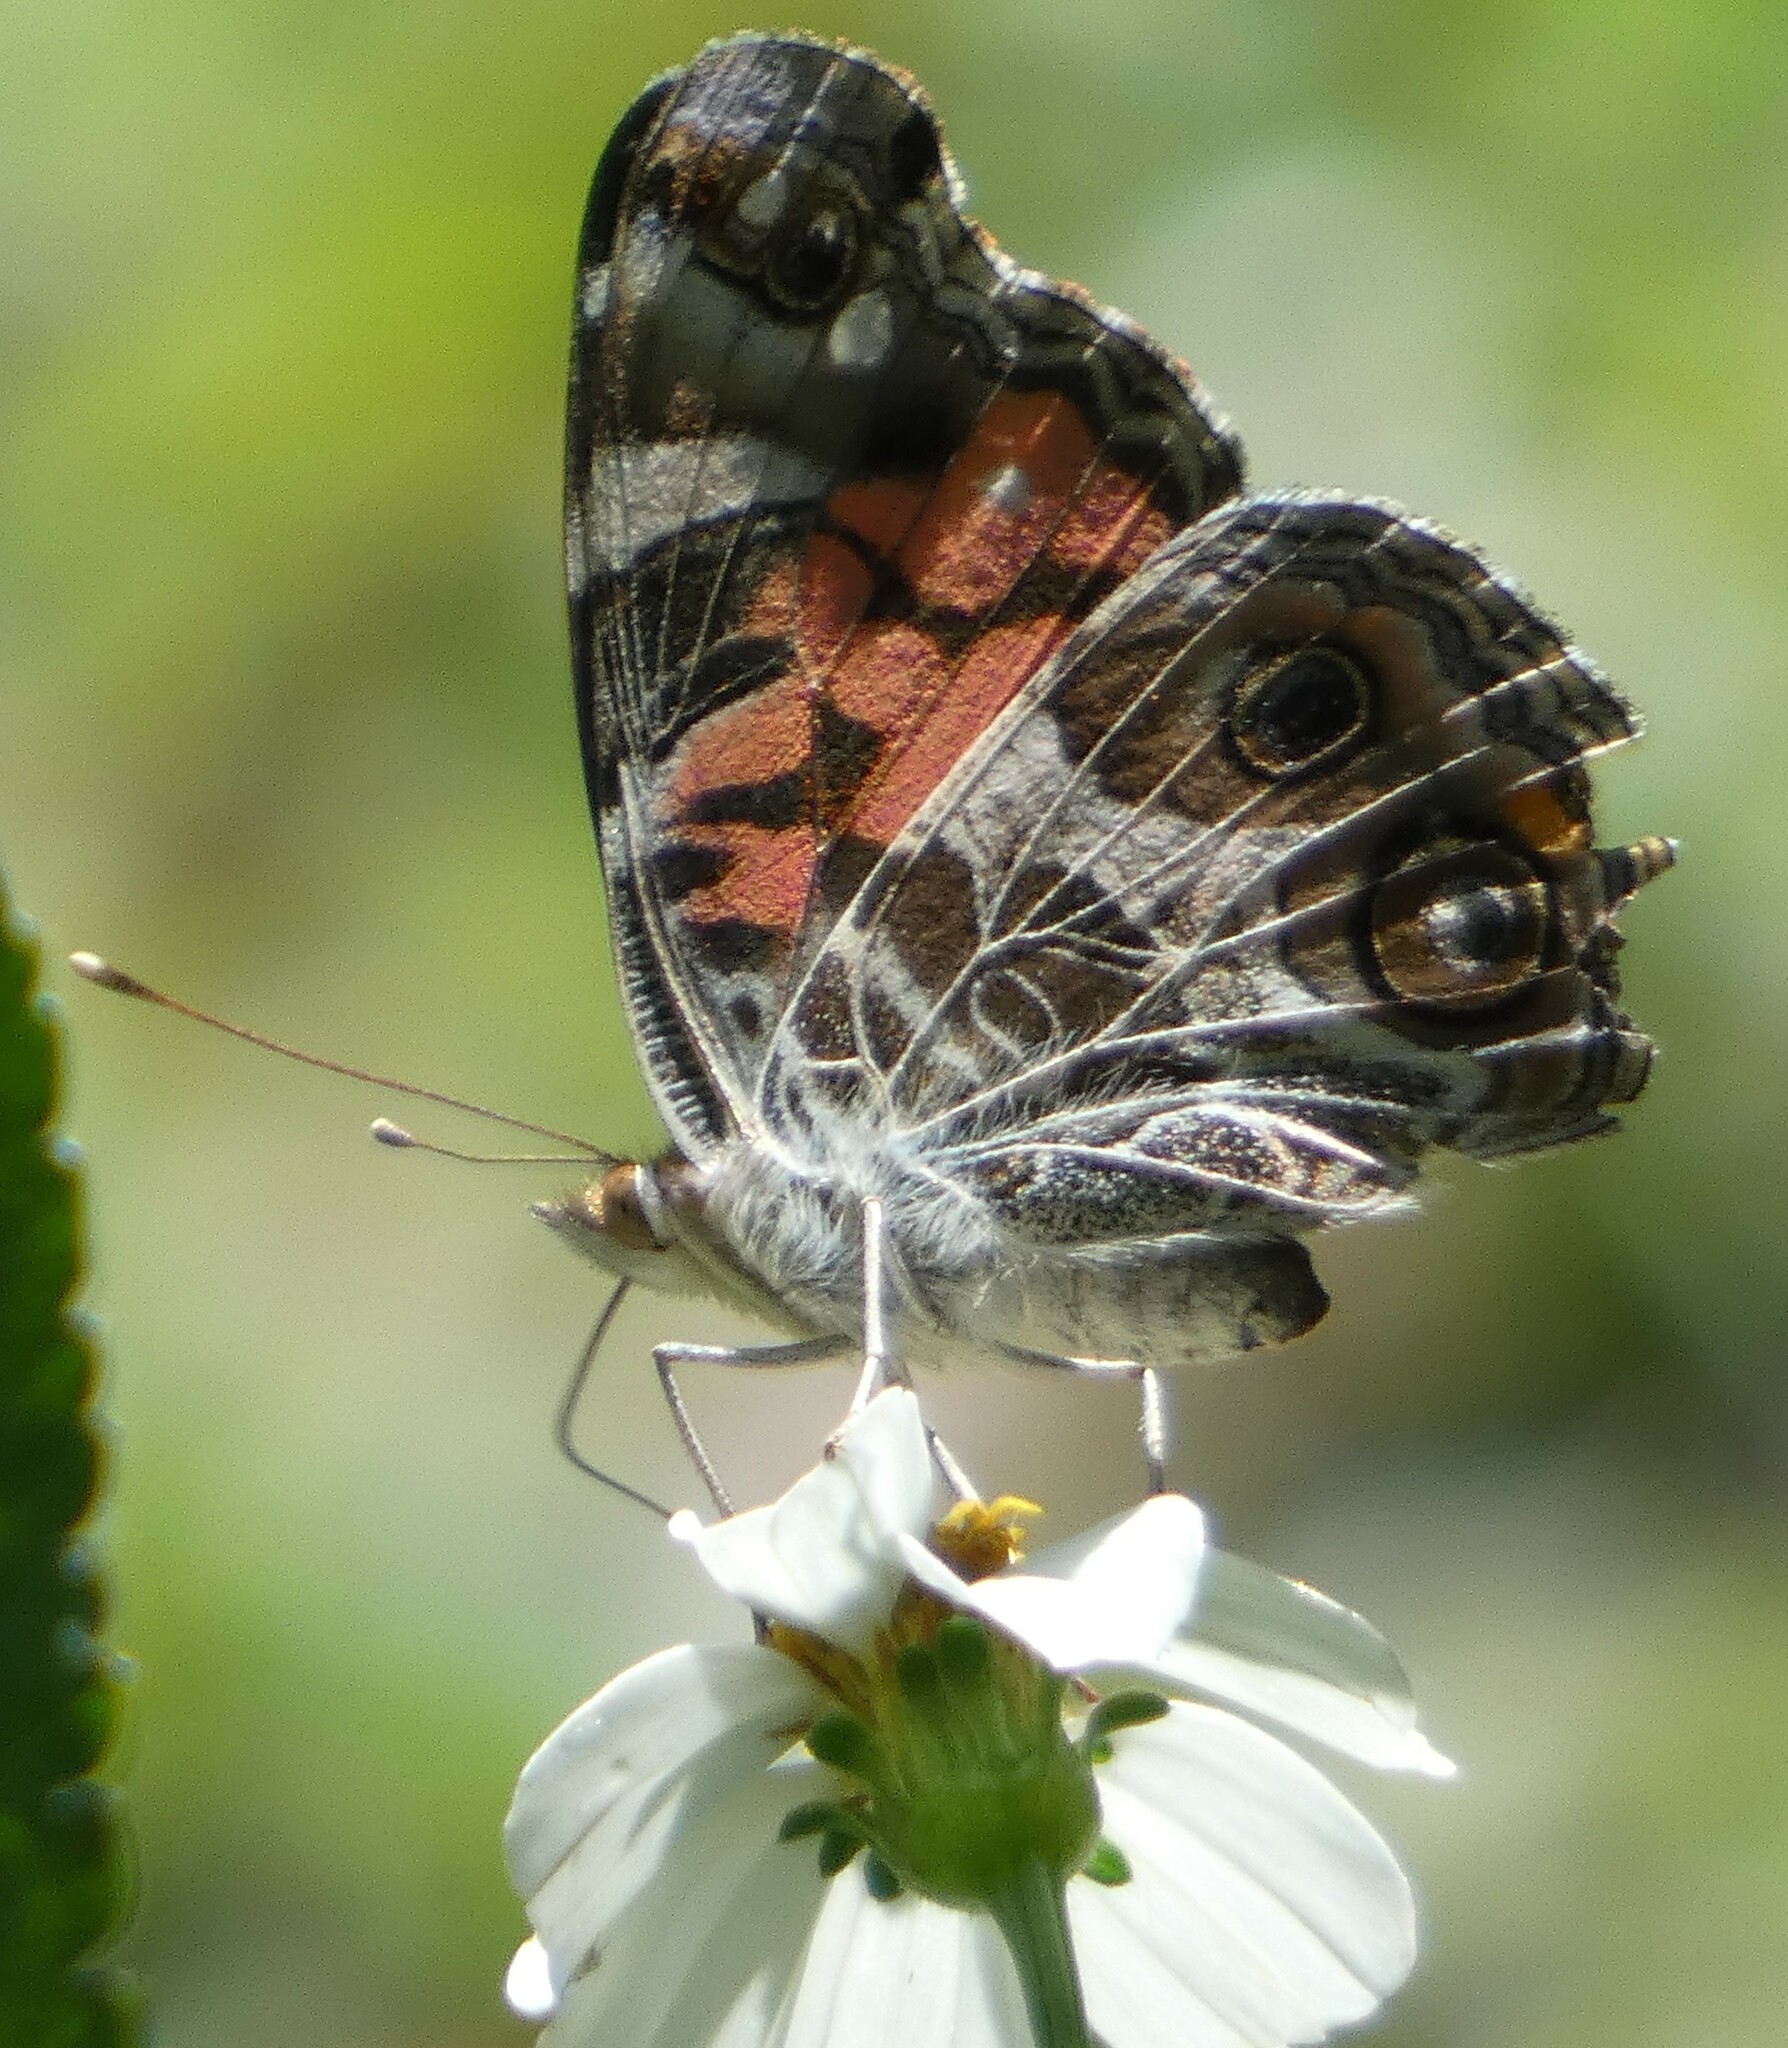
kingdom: Animalia
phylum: Arthropoda
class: Insecta
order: Lepidoptera
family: Nymphalidae
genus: Vanessa
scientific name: Vanessa virginiensis
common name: American lady
